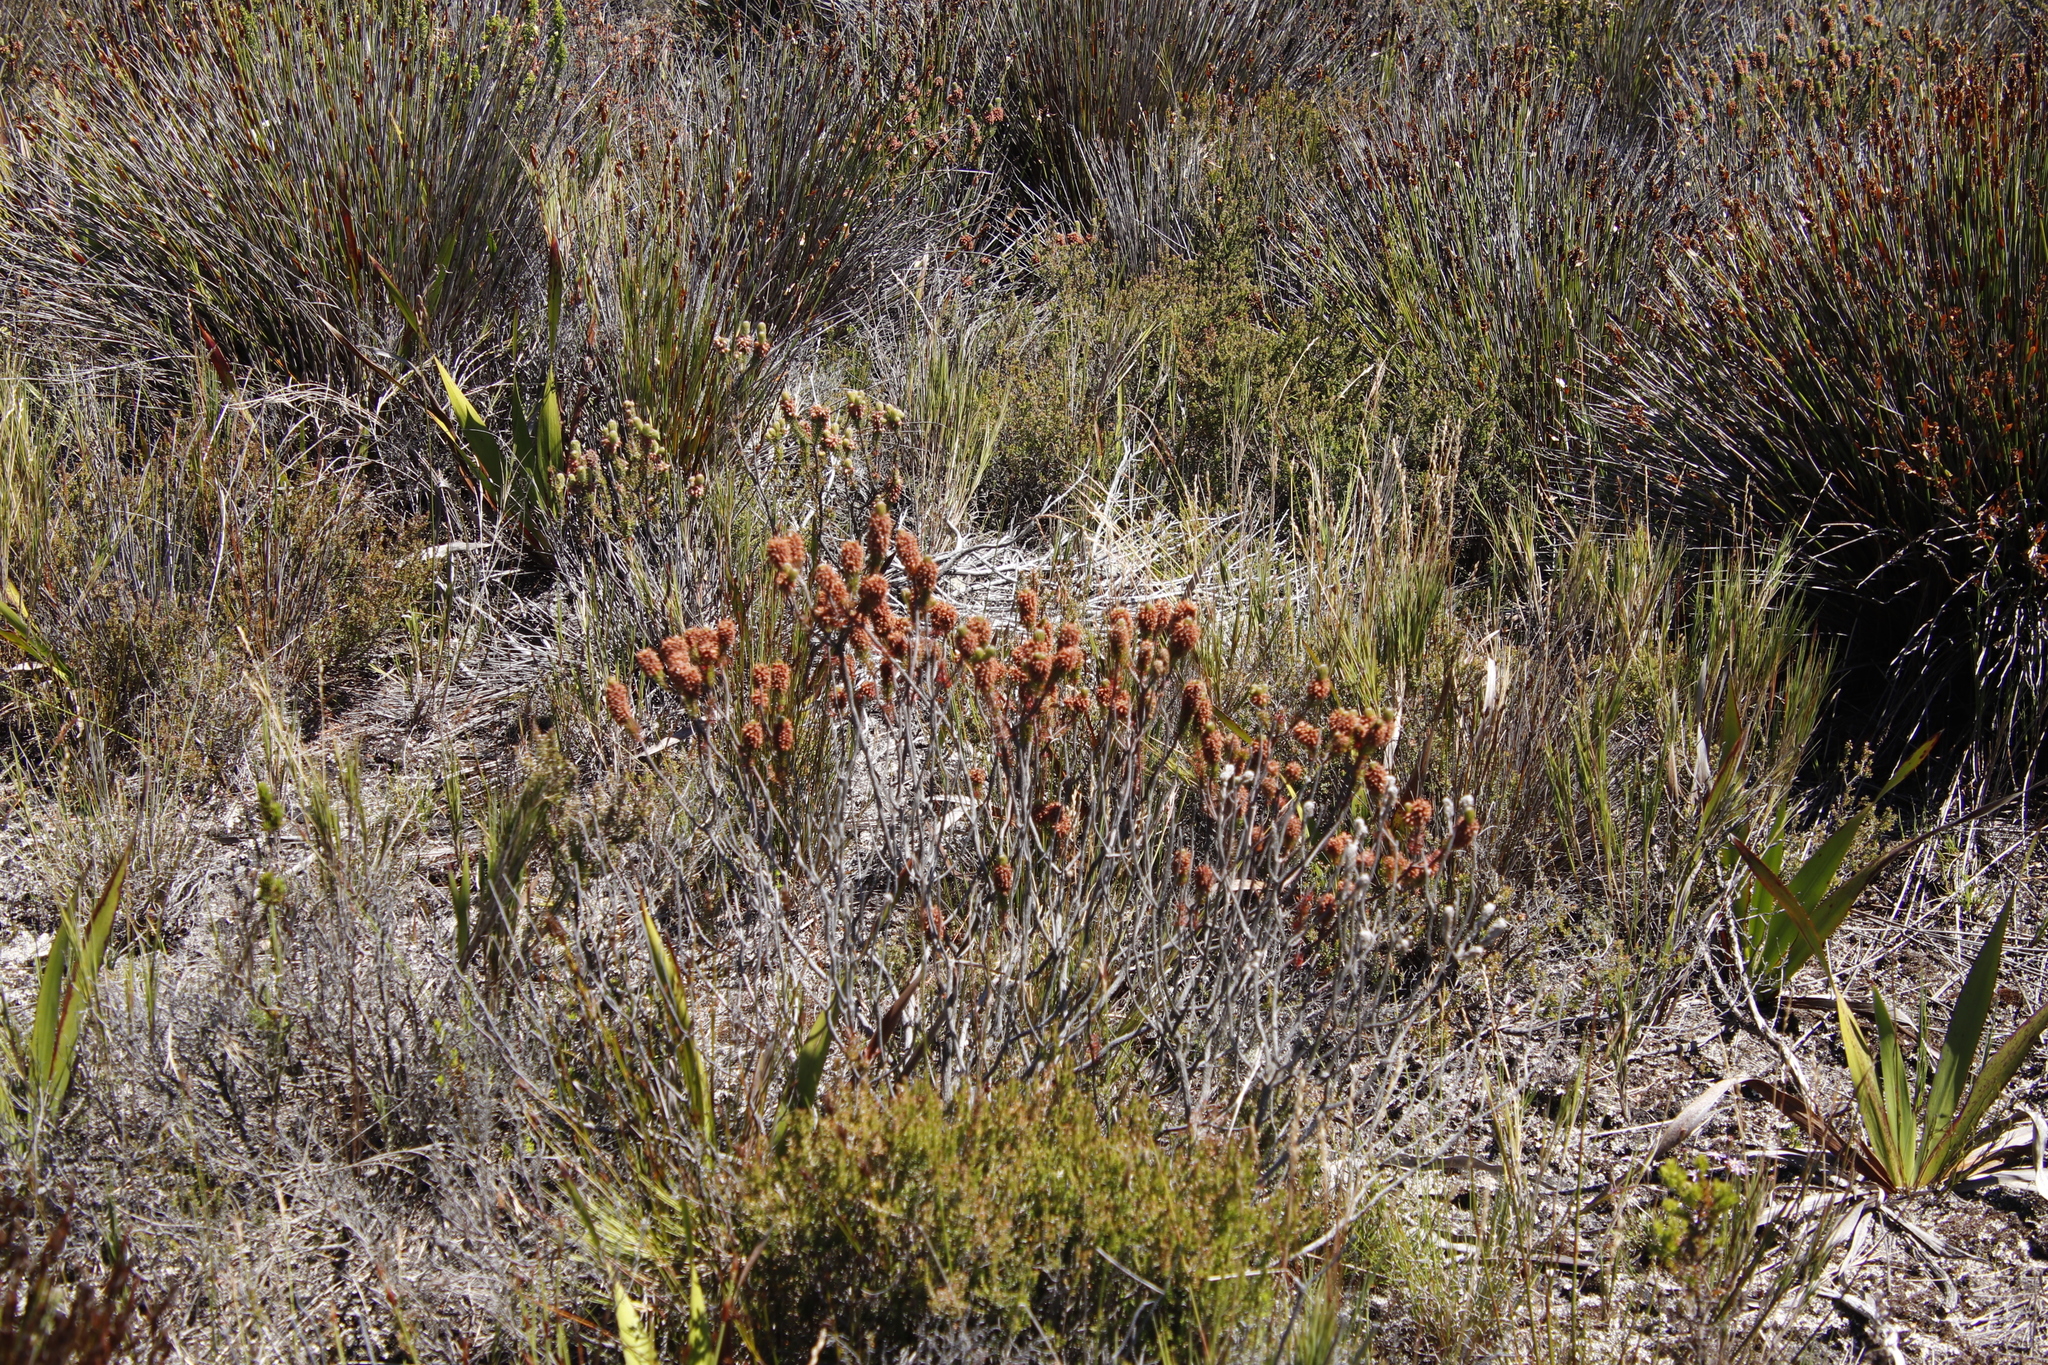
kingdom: Plantae
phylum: Tracheophyta
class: Magnoliopsida
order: Ericales
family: Ericaceae
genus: Erica
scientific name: Erica empetrina
